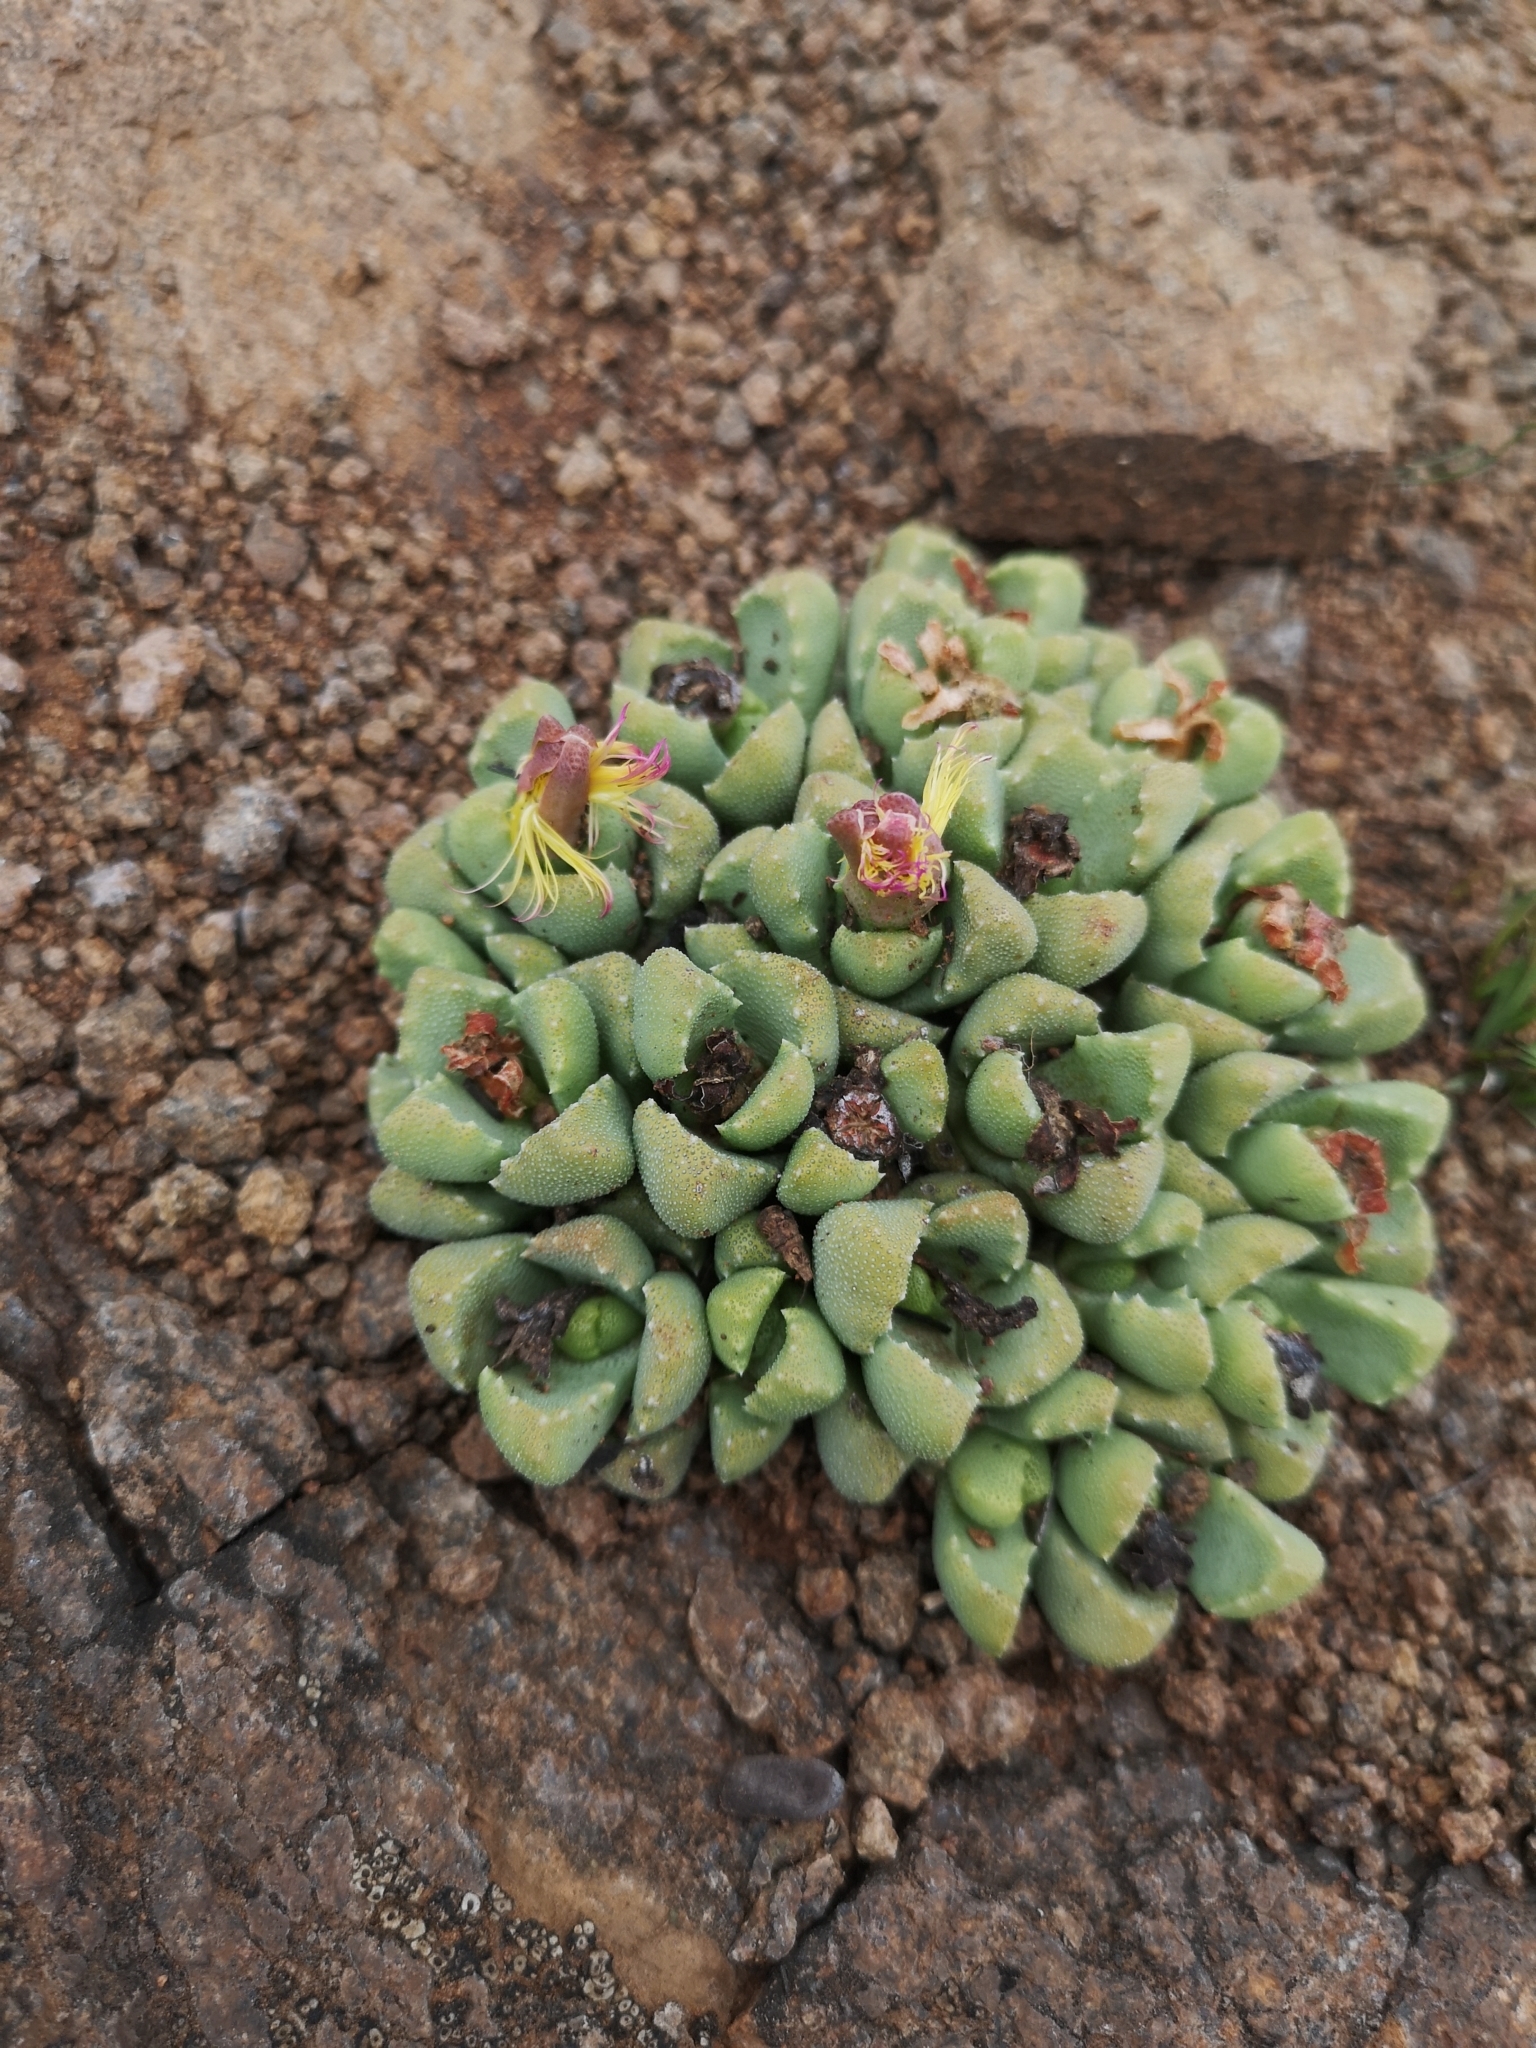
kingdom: Plantae
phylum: Tracheophyta
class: Magnoliopsida
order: Caryophyllales
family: Aizoaceae
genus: Stomatium
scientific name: Stomatium bolusiae
